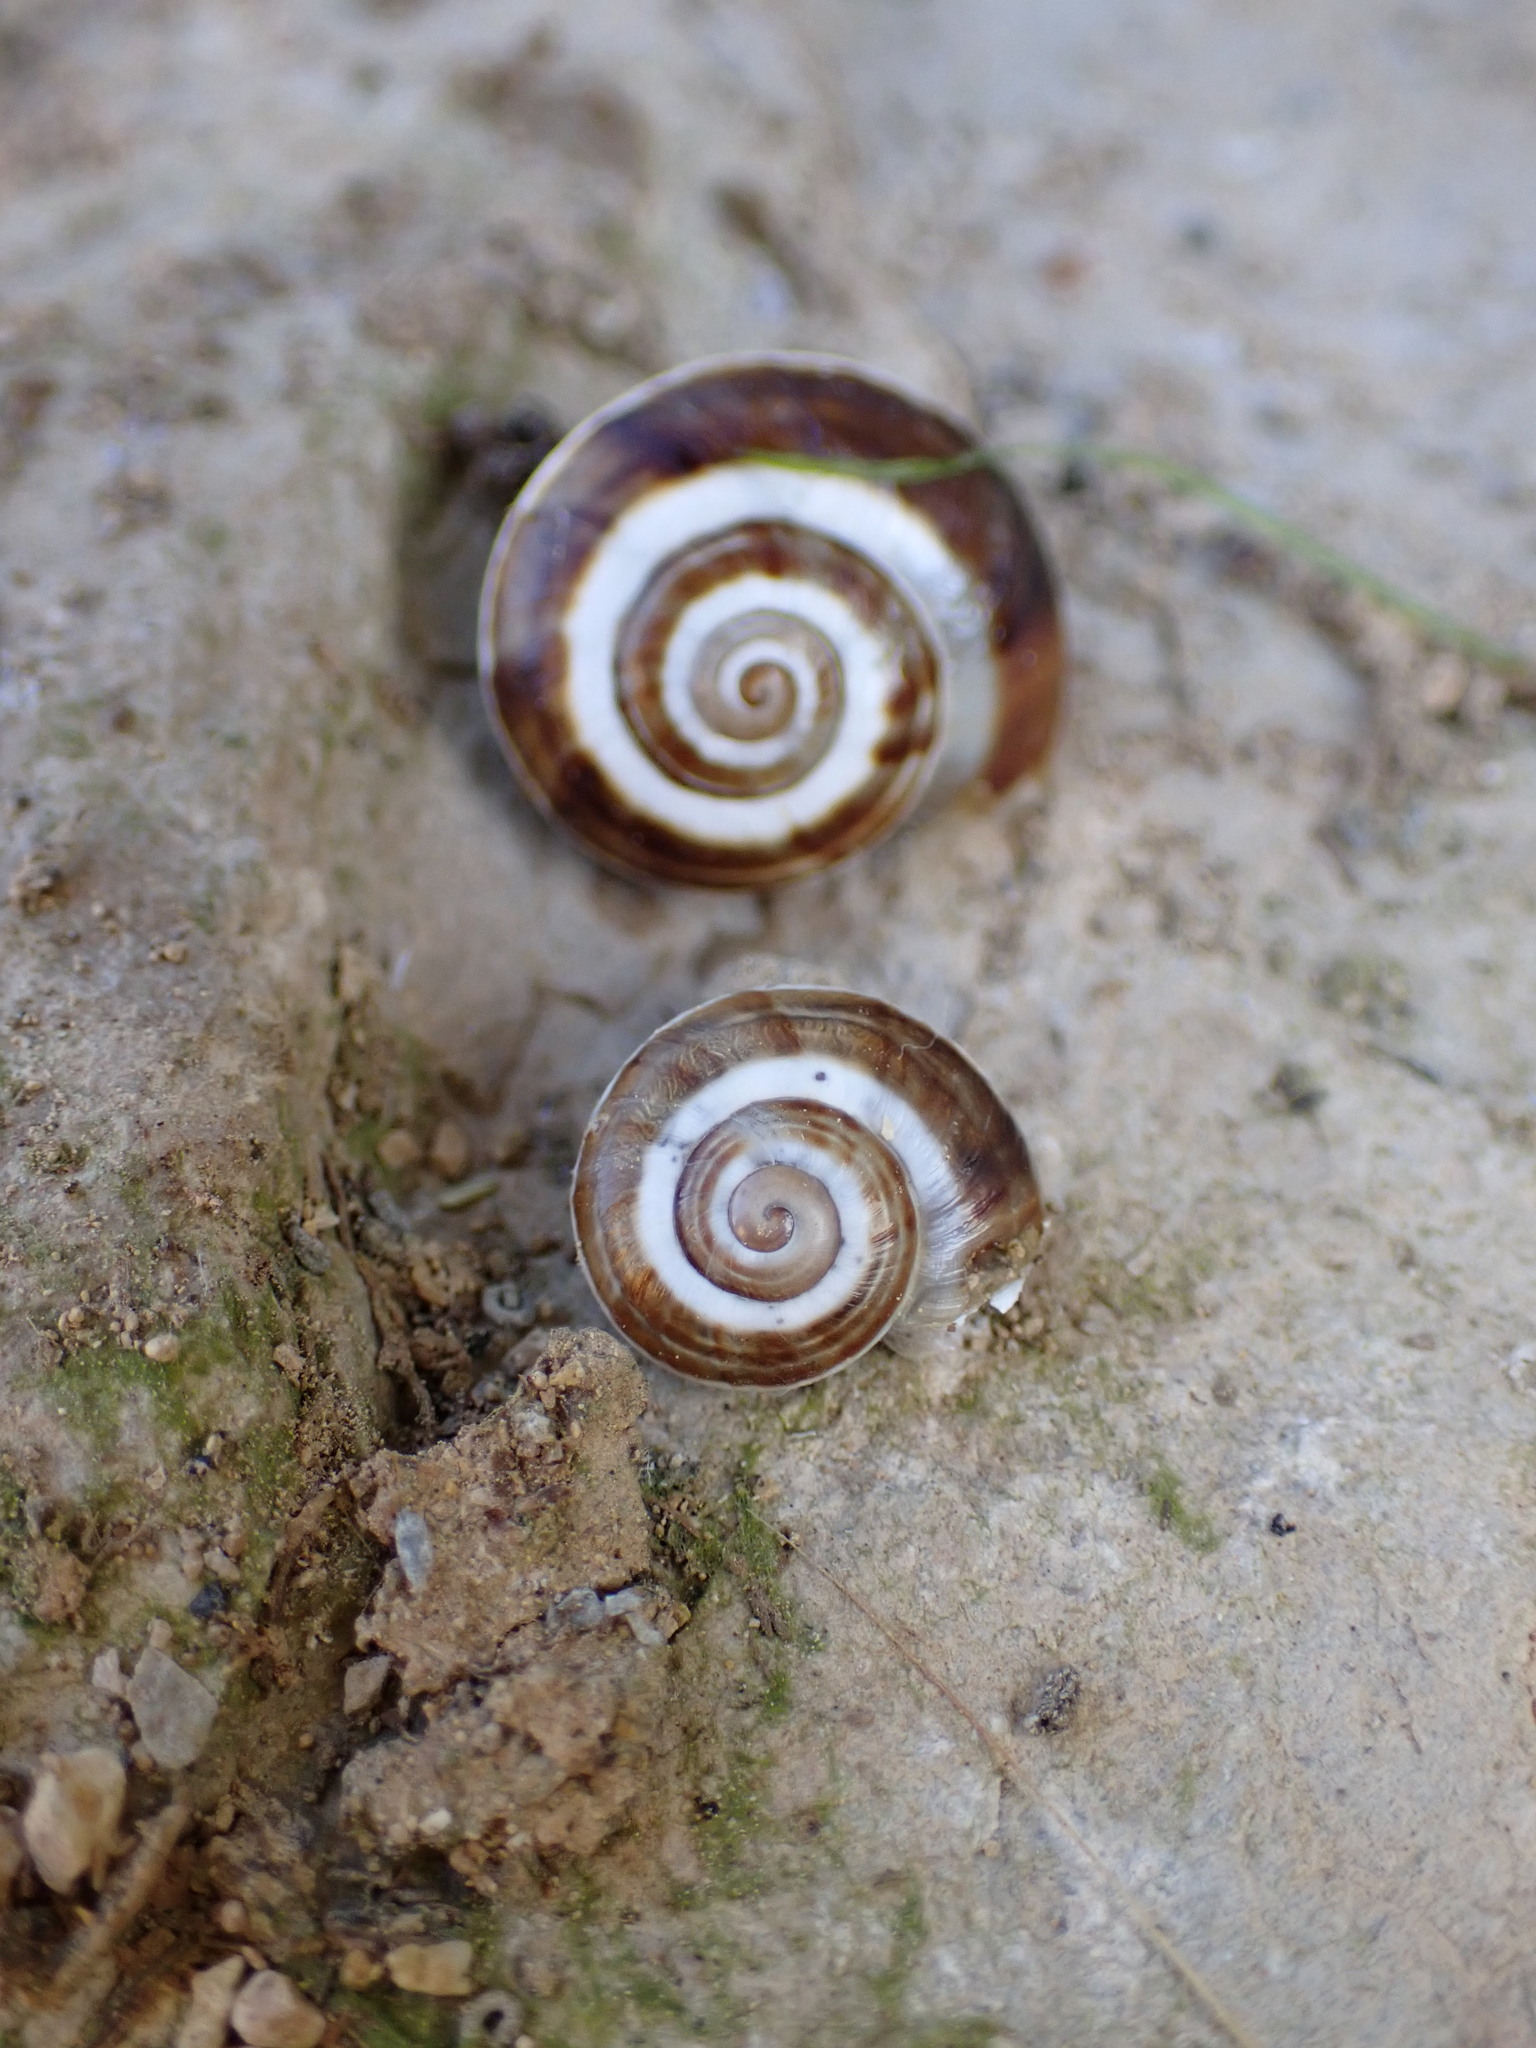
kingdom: Animalia
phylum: Mollusca
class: Gastropoda
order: Stylommatophora
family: Helicidae
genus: Pseudotachea
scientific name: Pseudotachea splendida
